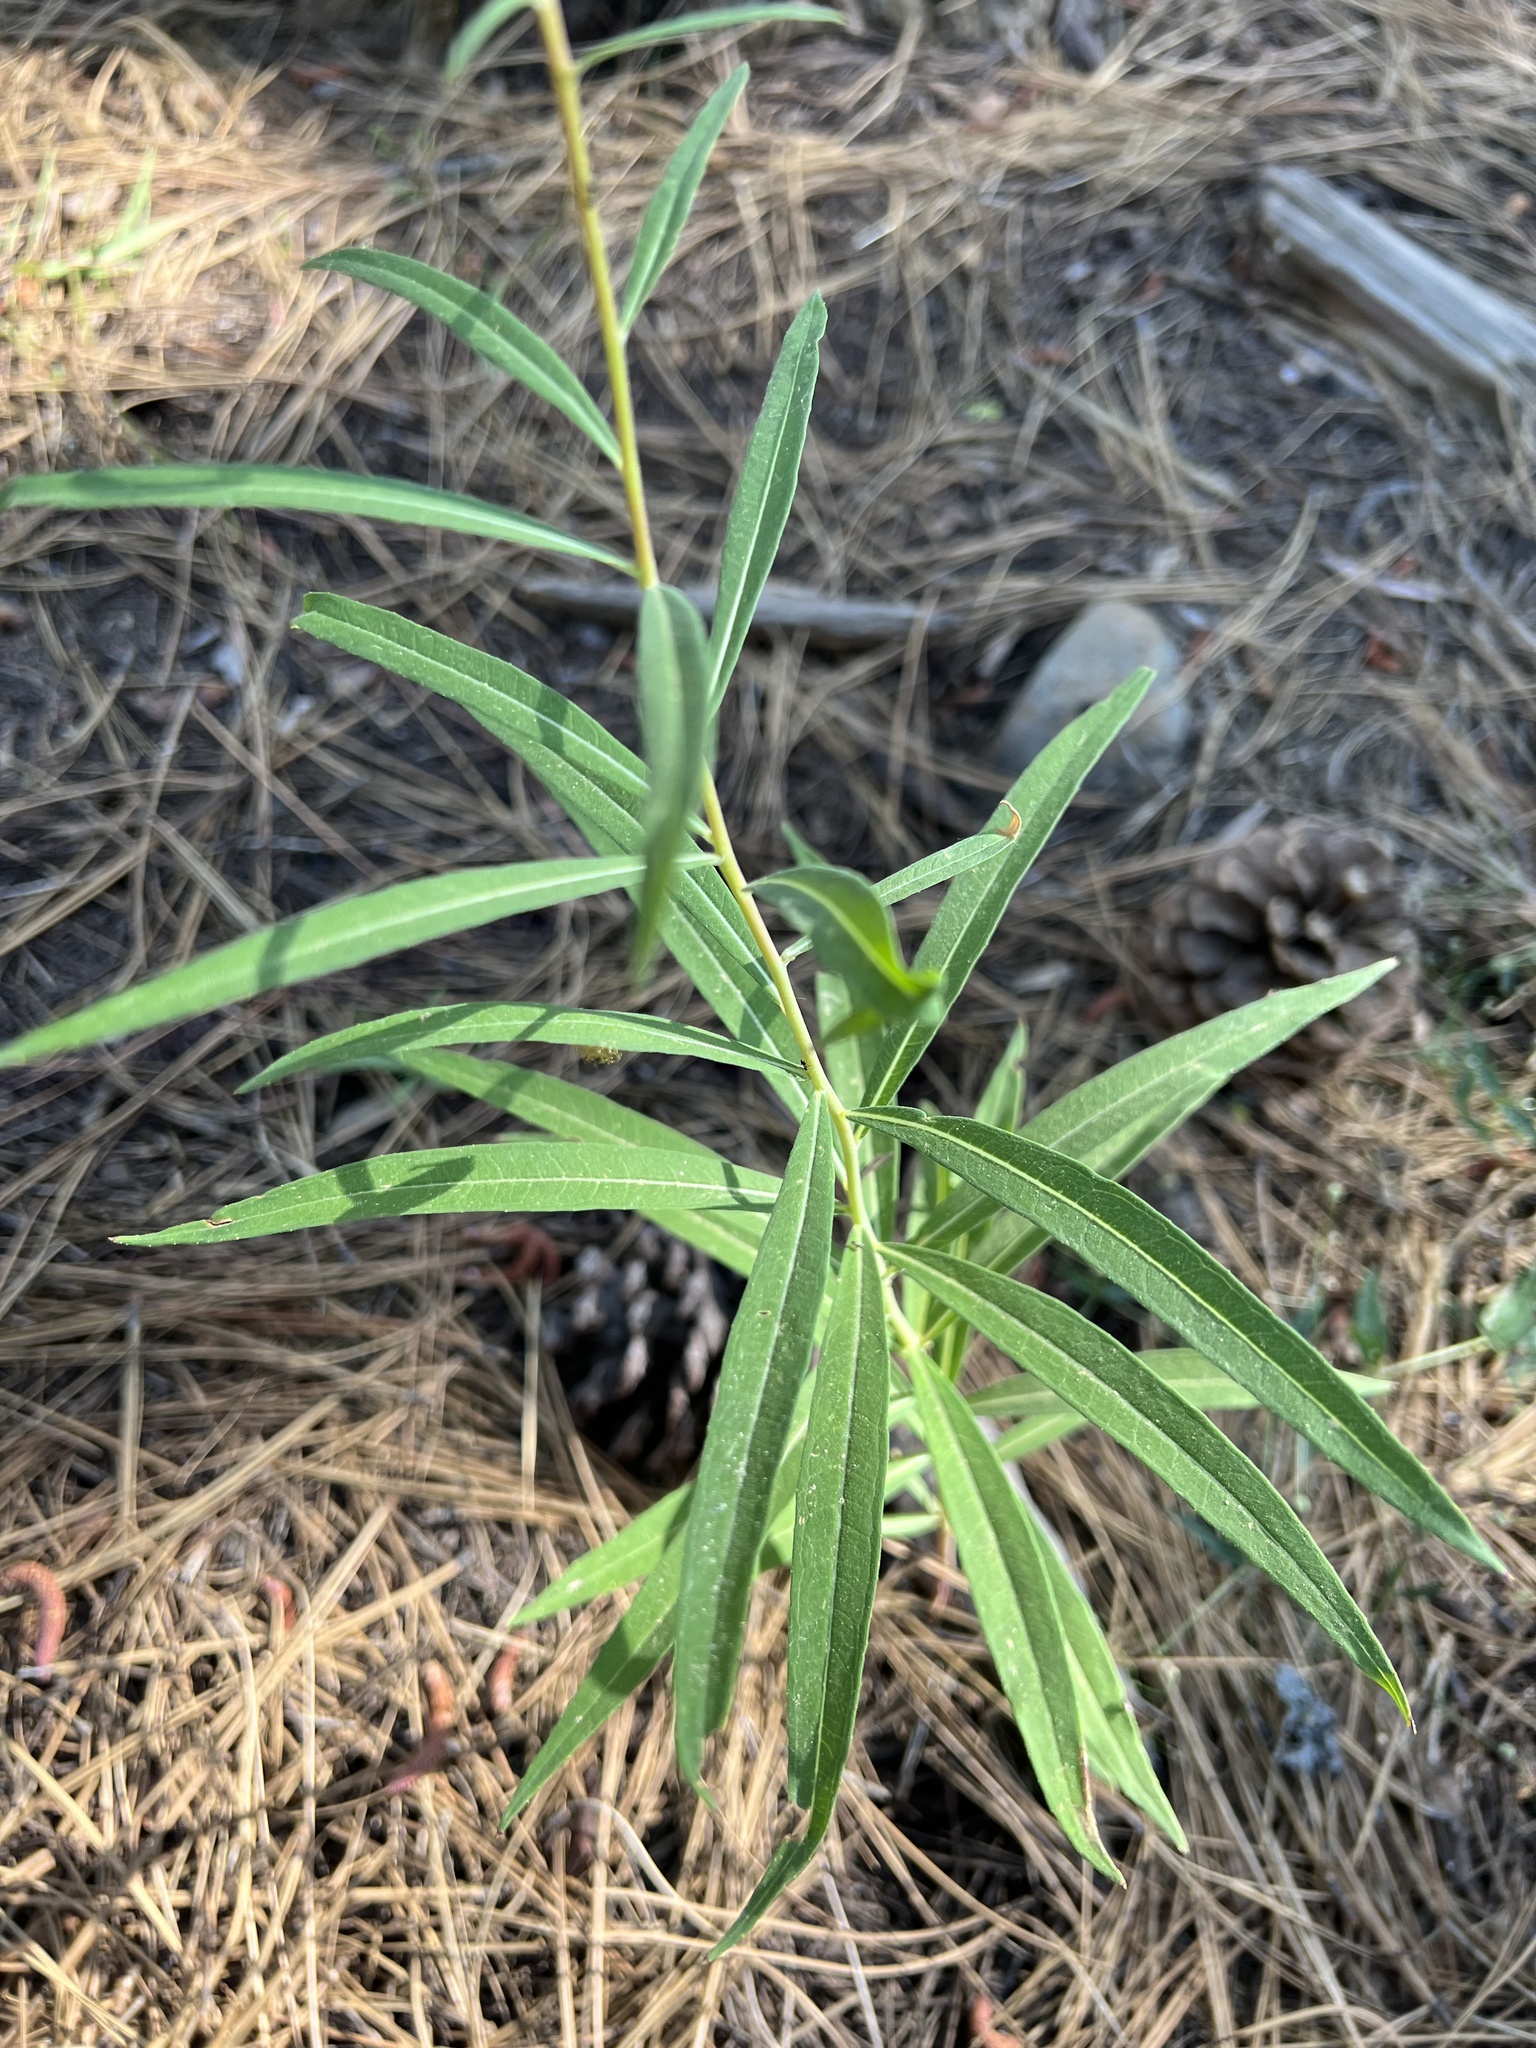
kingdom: Plantae
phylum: Tracheophyta
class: Magnoliopsida
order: Myrtales
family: Onagraceae
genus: Chamaenerion
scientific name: Chamaenerion angustifolium
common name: Fireweed
